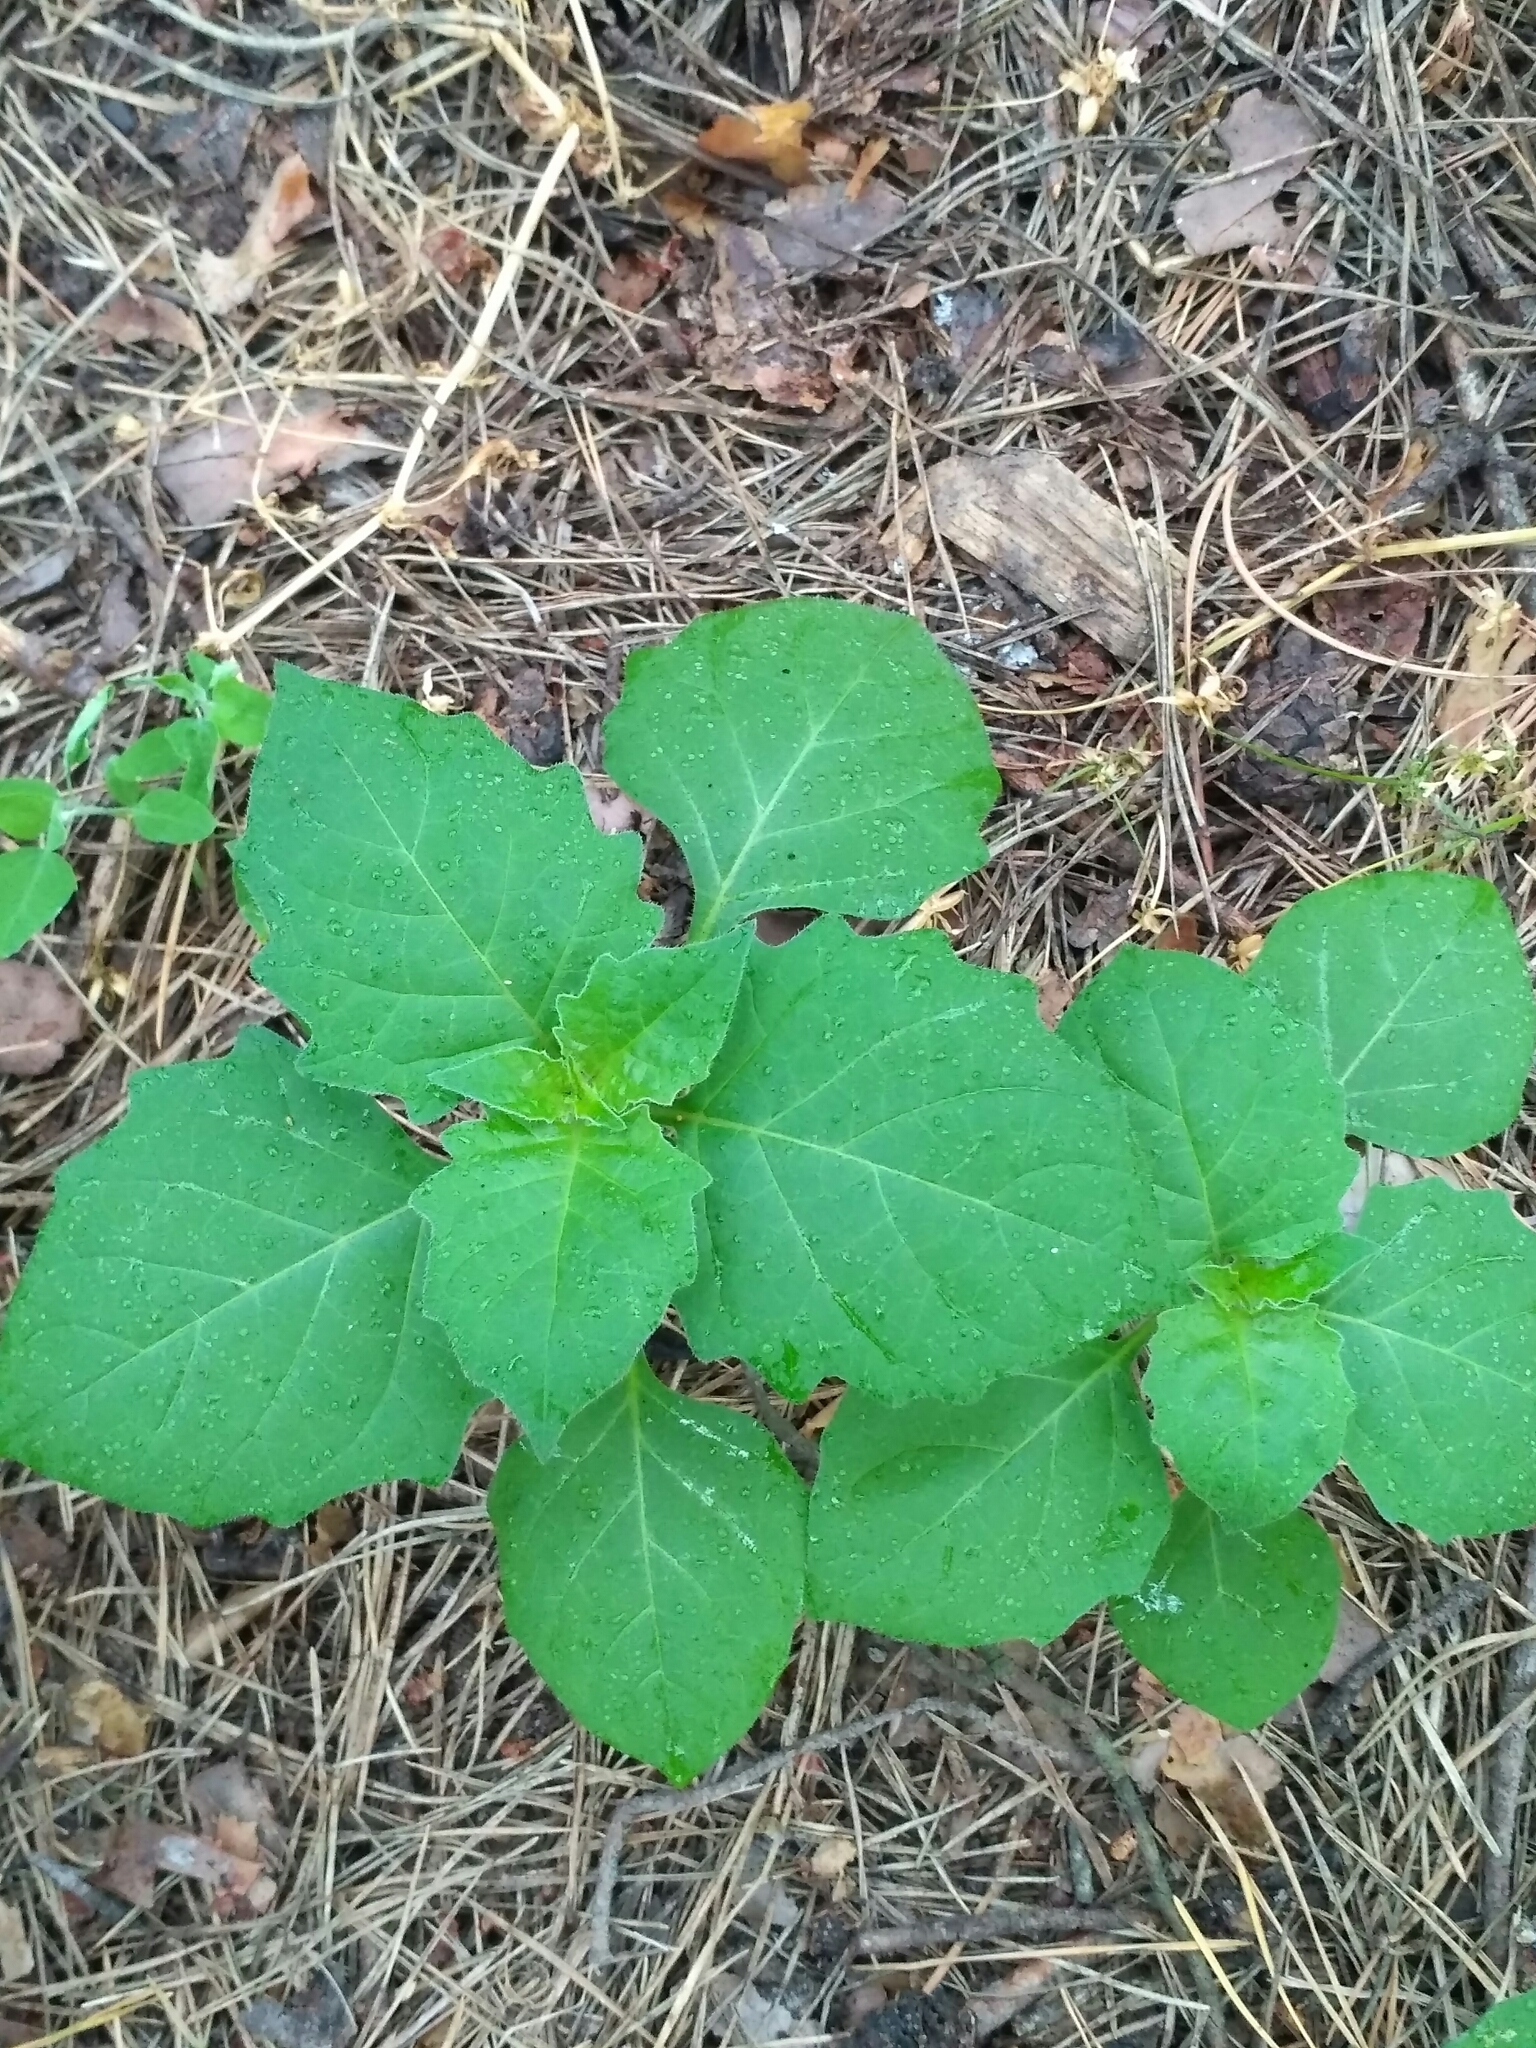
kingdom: Plantae
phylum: Tracheophyta
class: Magnoliopsida
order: Solanales
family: Solanaceae
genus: Alkekengi
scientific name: Alkekengi officinarum
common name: Japanese-lantern
